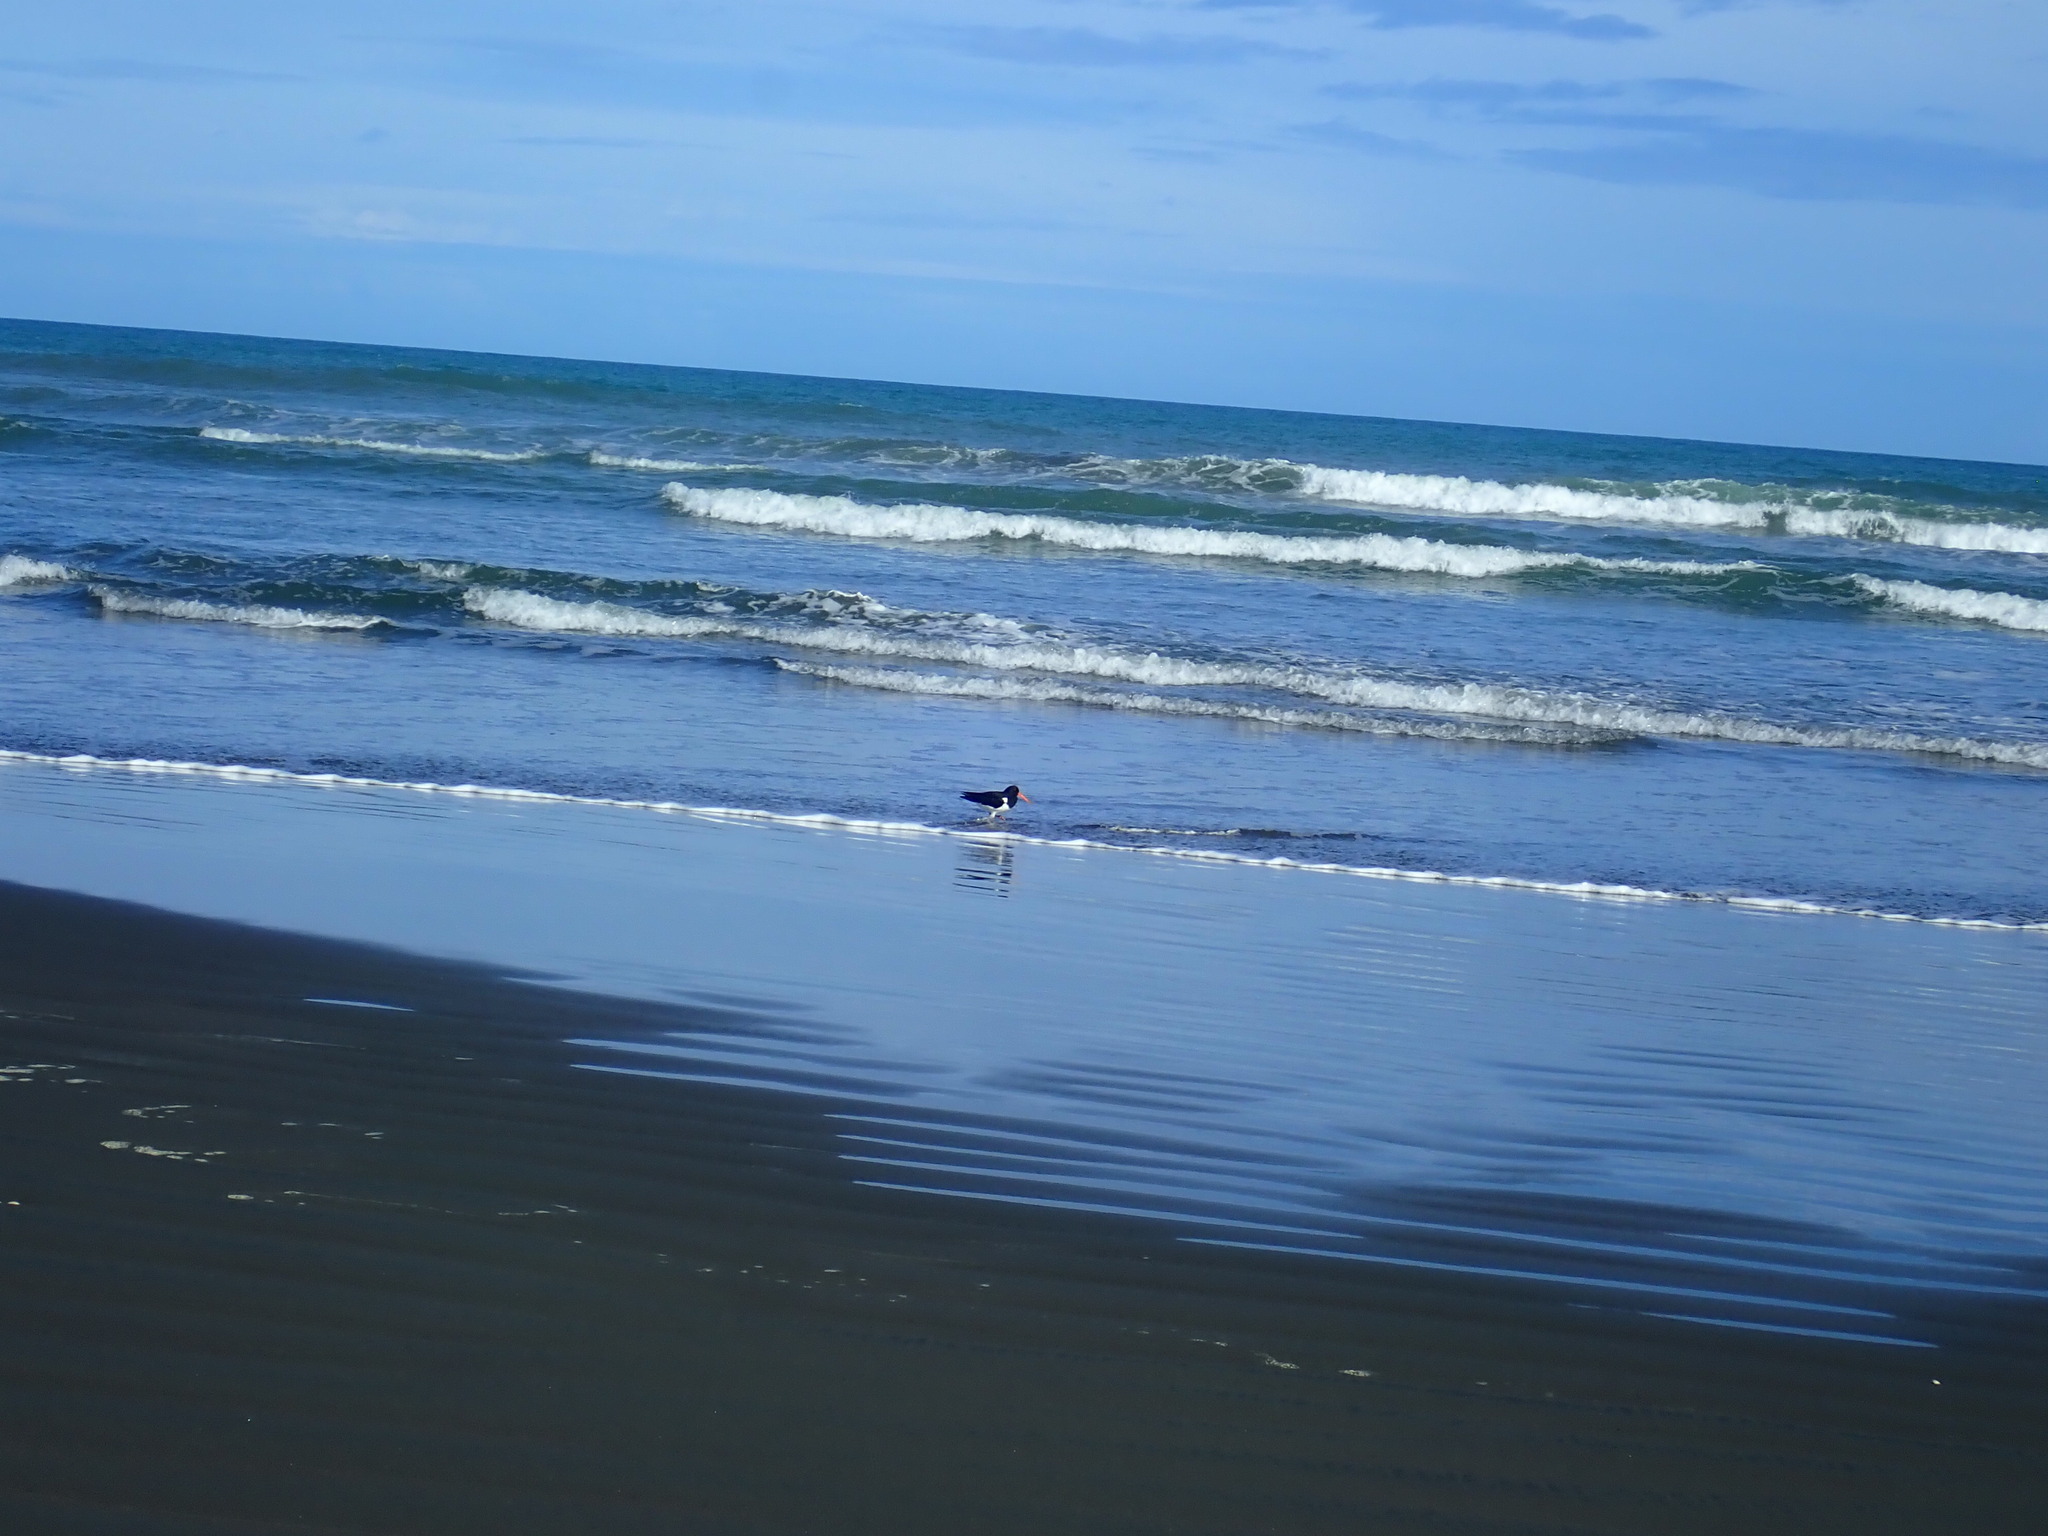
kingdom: Animalia
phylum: Chordata
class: Aves
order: Charadriiformes
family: Haematopodidae
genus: Haematopus
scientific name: Haematopus finschi
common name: South island oystercatcher
